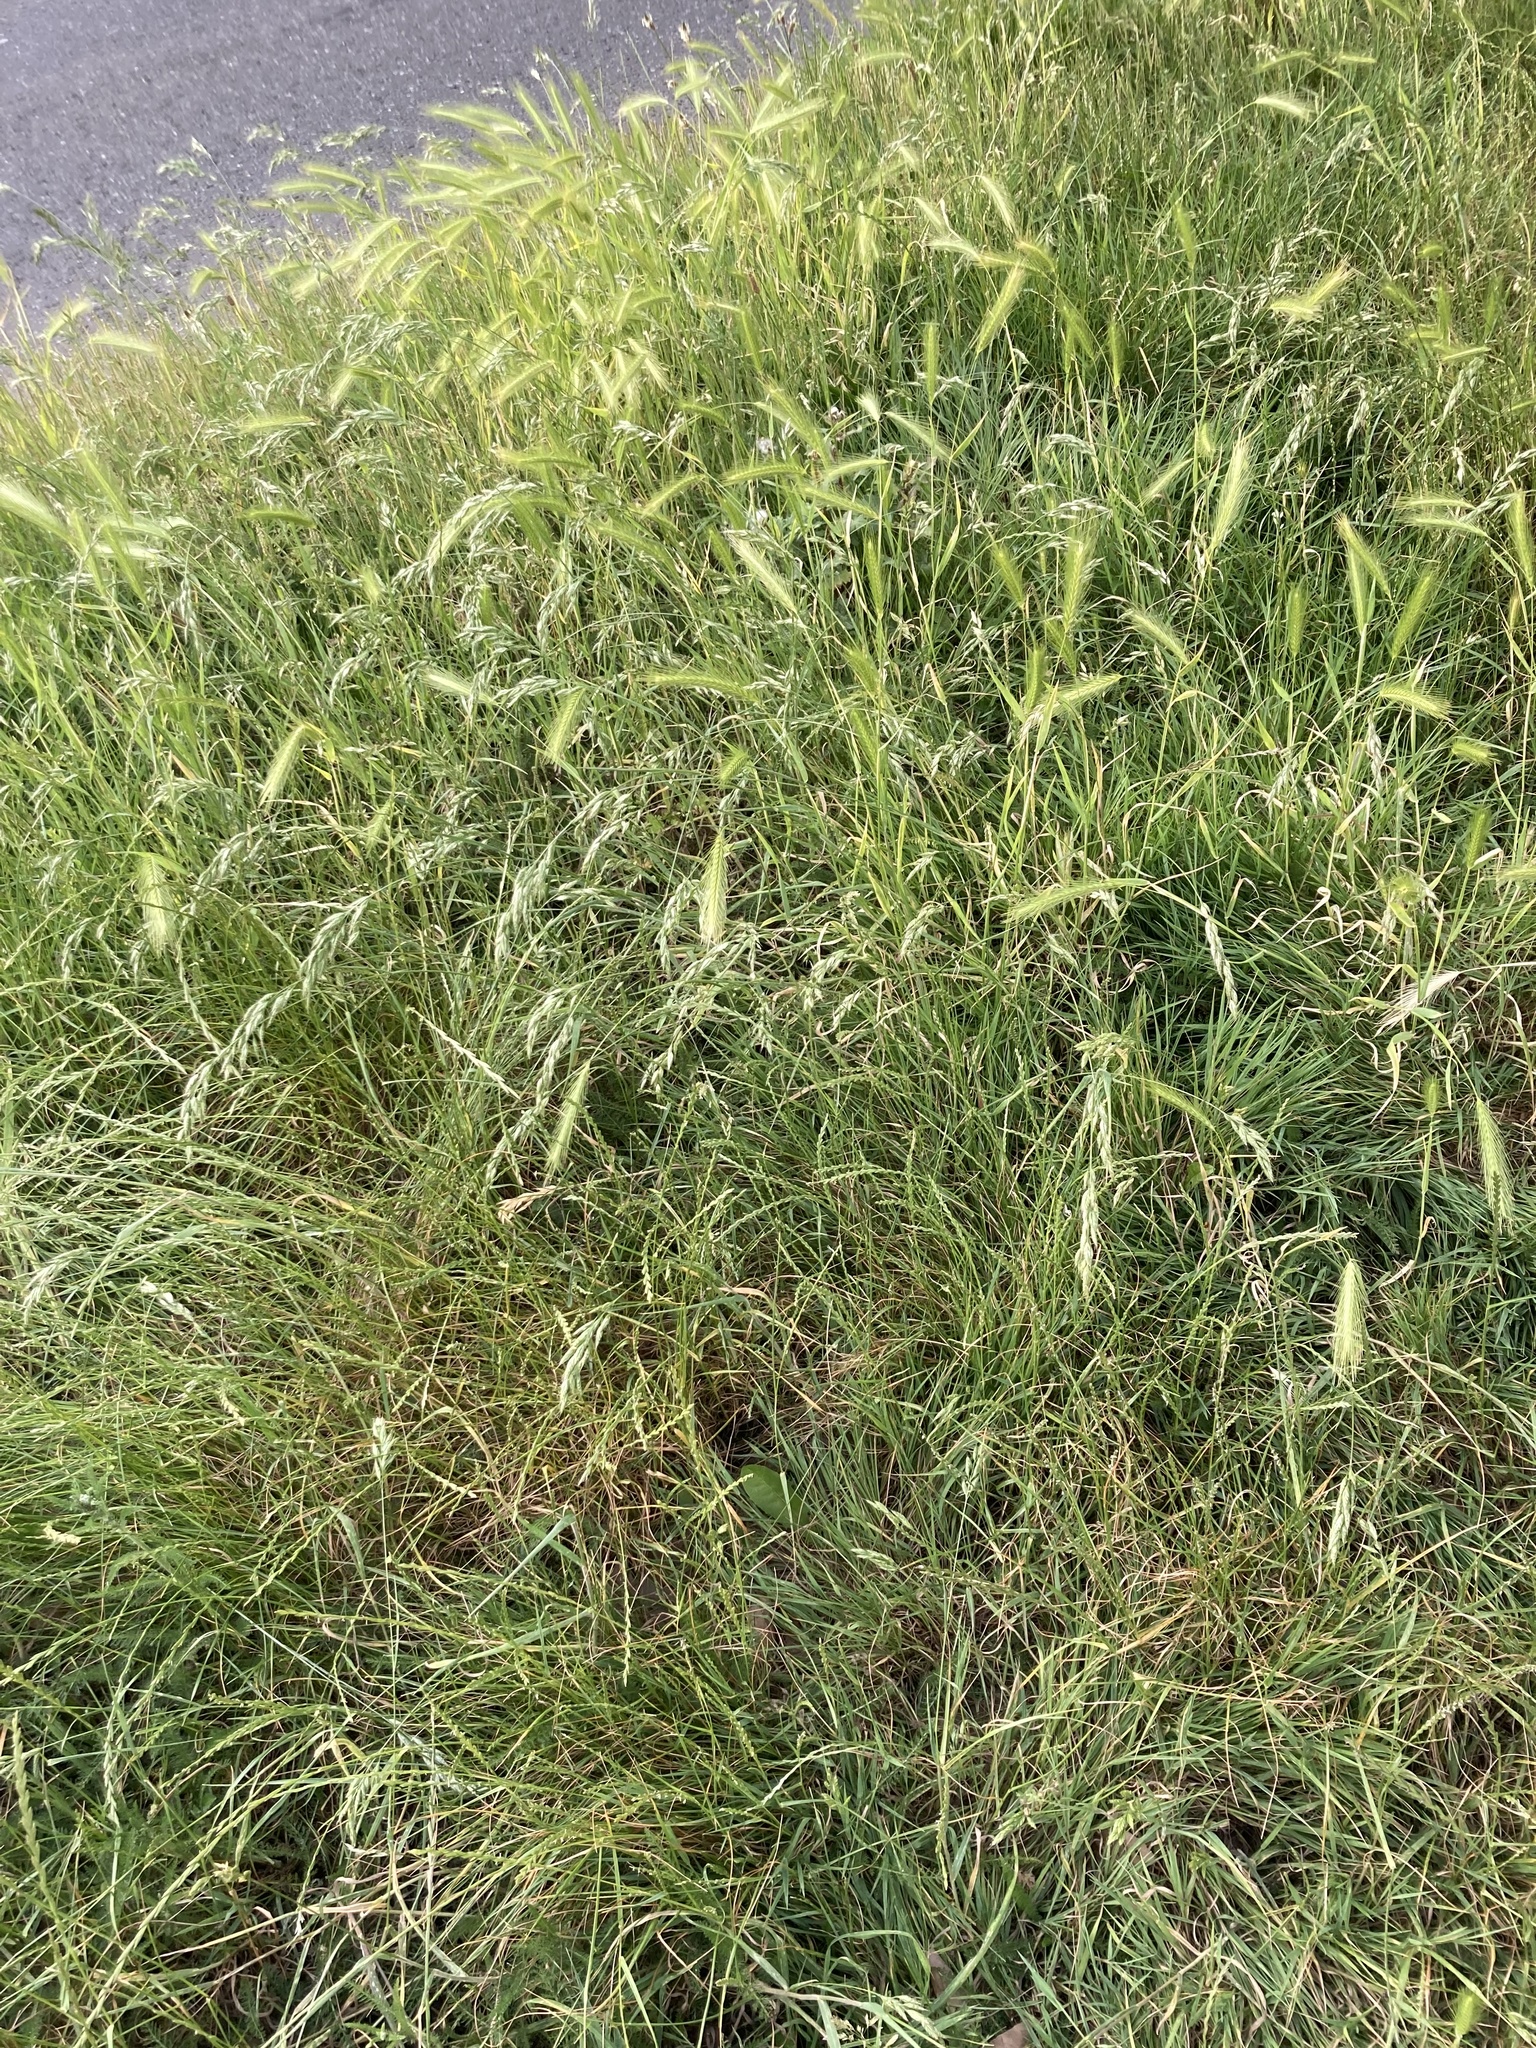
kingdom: Plantae
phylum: Tracheophyta
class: Liliopsida
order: Poales
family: Poaceae
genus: Hordeum
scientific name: Hordeum murinum
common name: Wall barley
